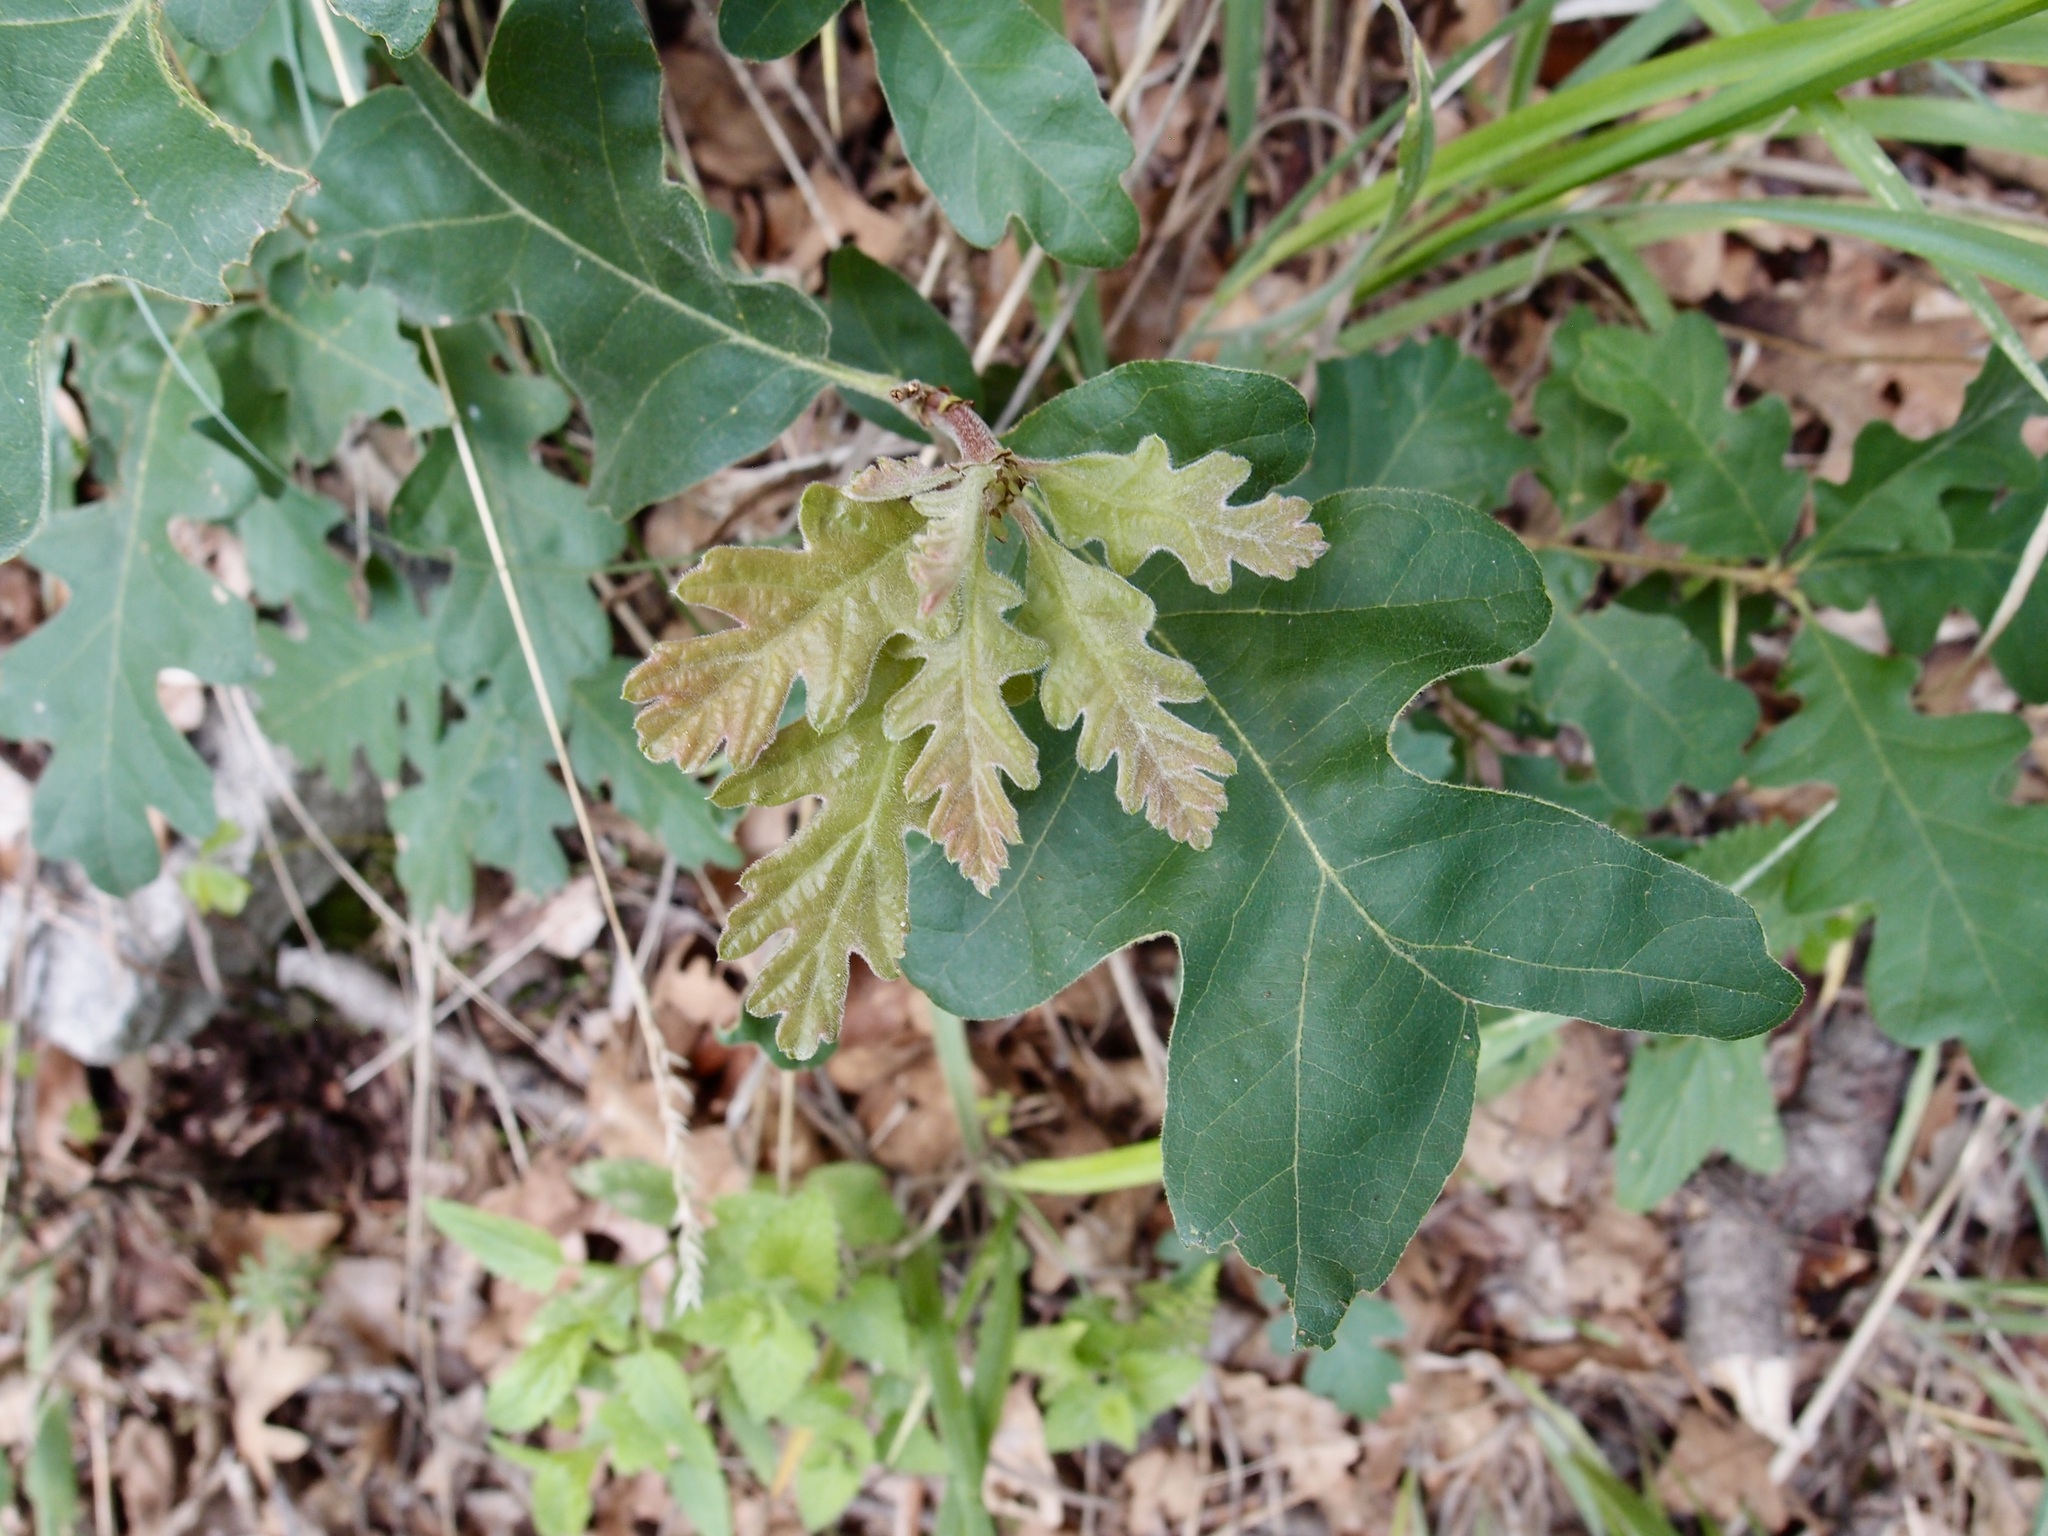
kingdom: Plantae
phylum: Tracheophyta
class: Magnoliopsida
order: Fagales
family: Fagaceae
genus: Quercus
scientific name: Quercus gambelii
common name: Gambel oak
